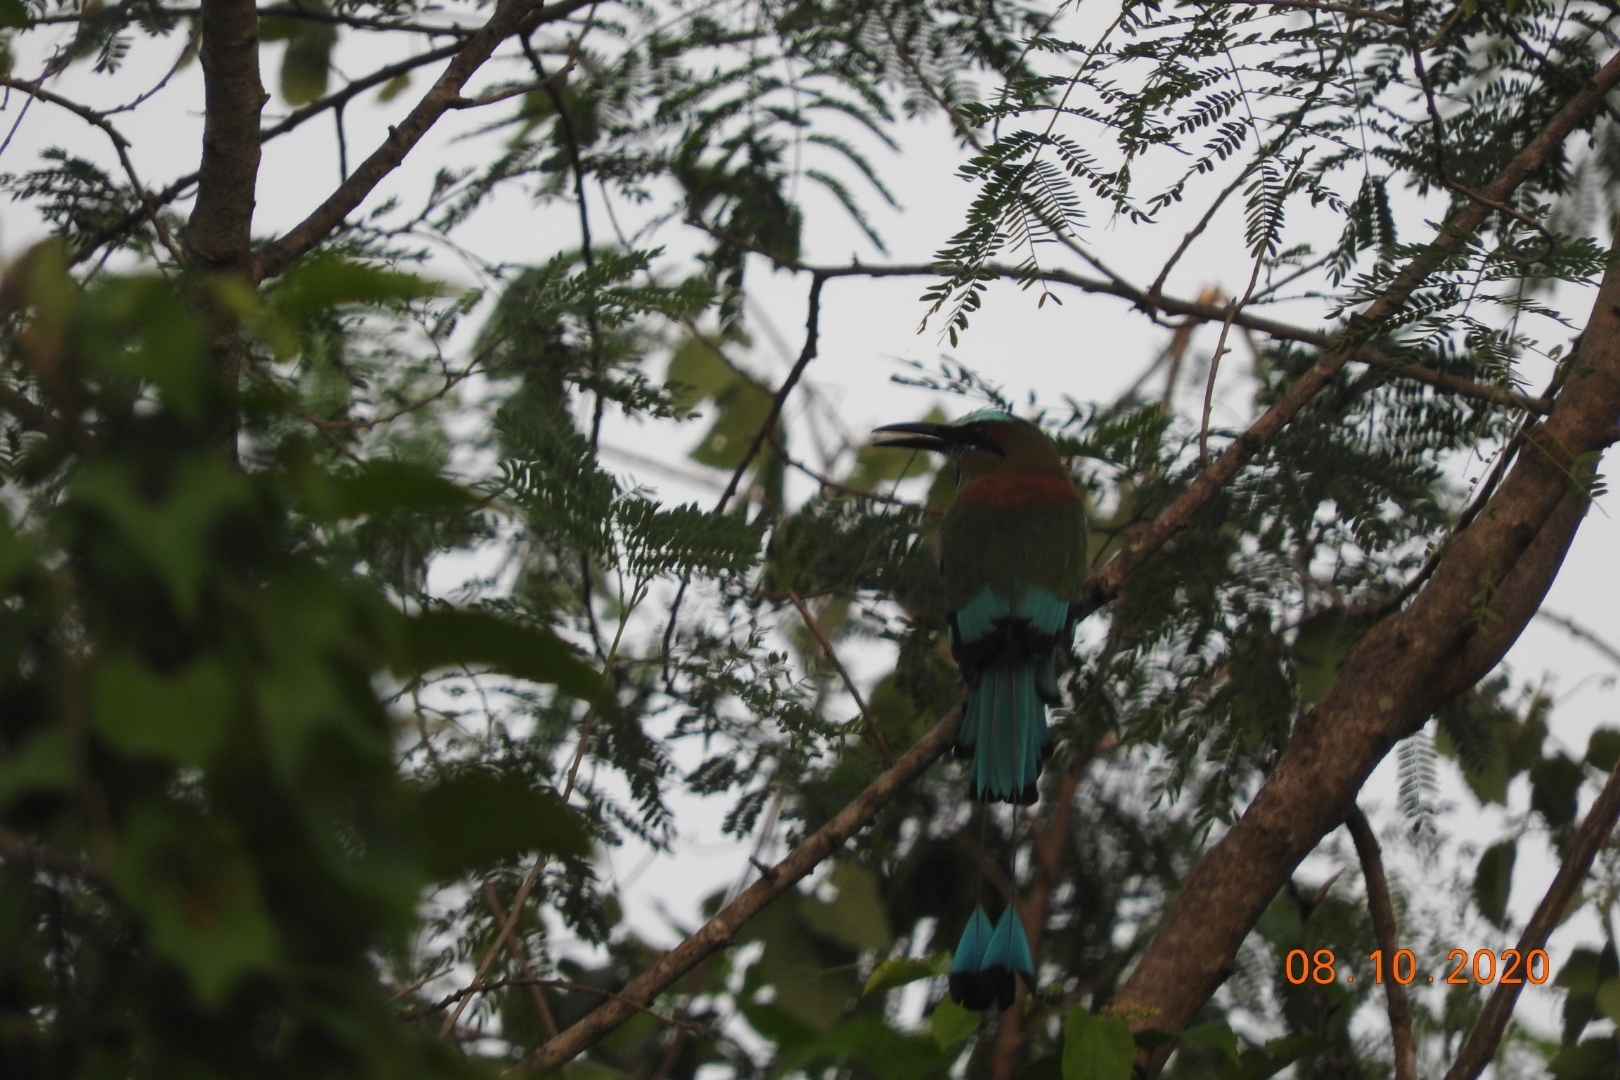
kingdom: Animalia
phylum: Chordata
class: Aves
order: Coraciiformes
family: Momotidae
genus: Eumomota
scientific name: Eumomota superciliosa
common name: Turquoise-browed motmot
